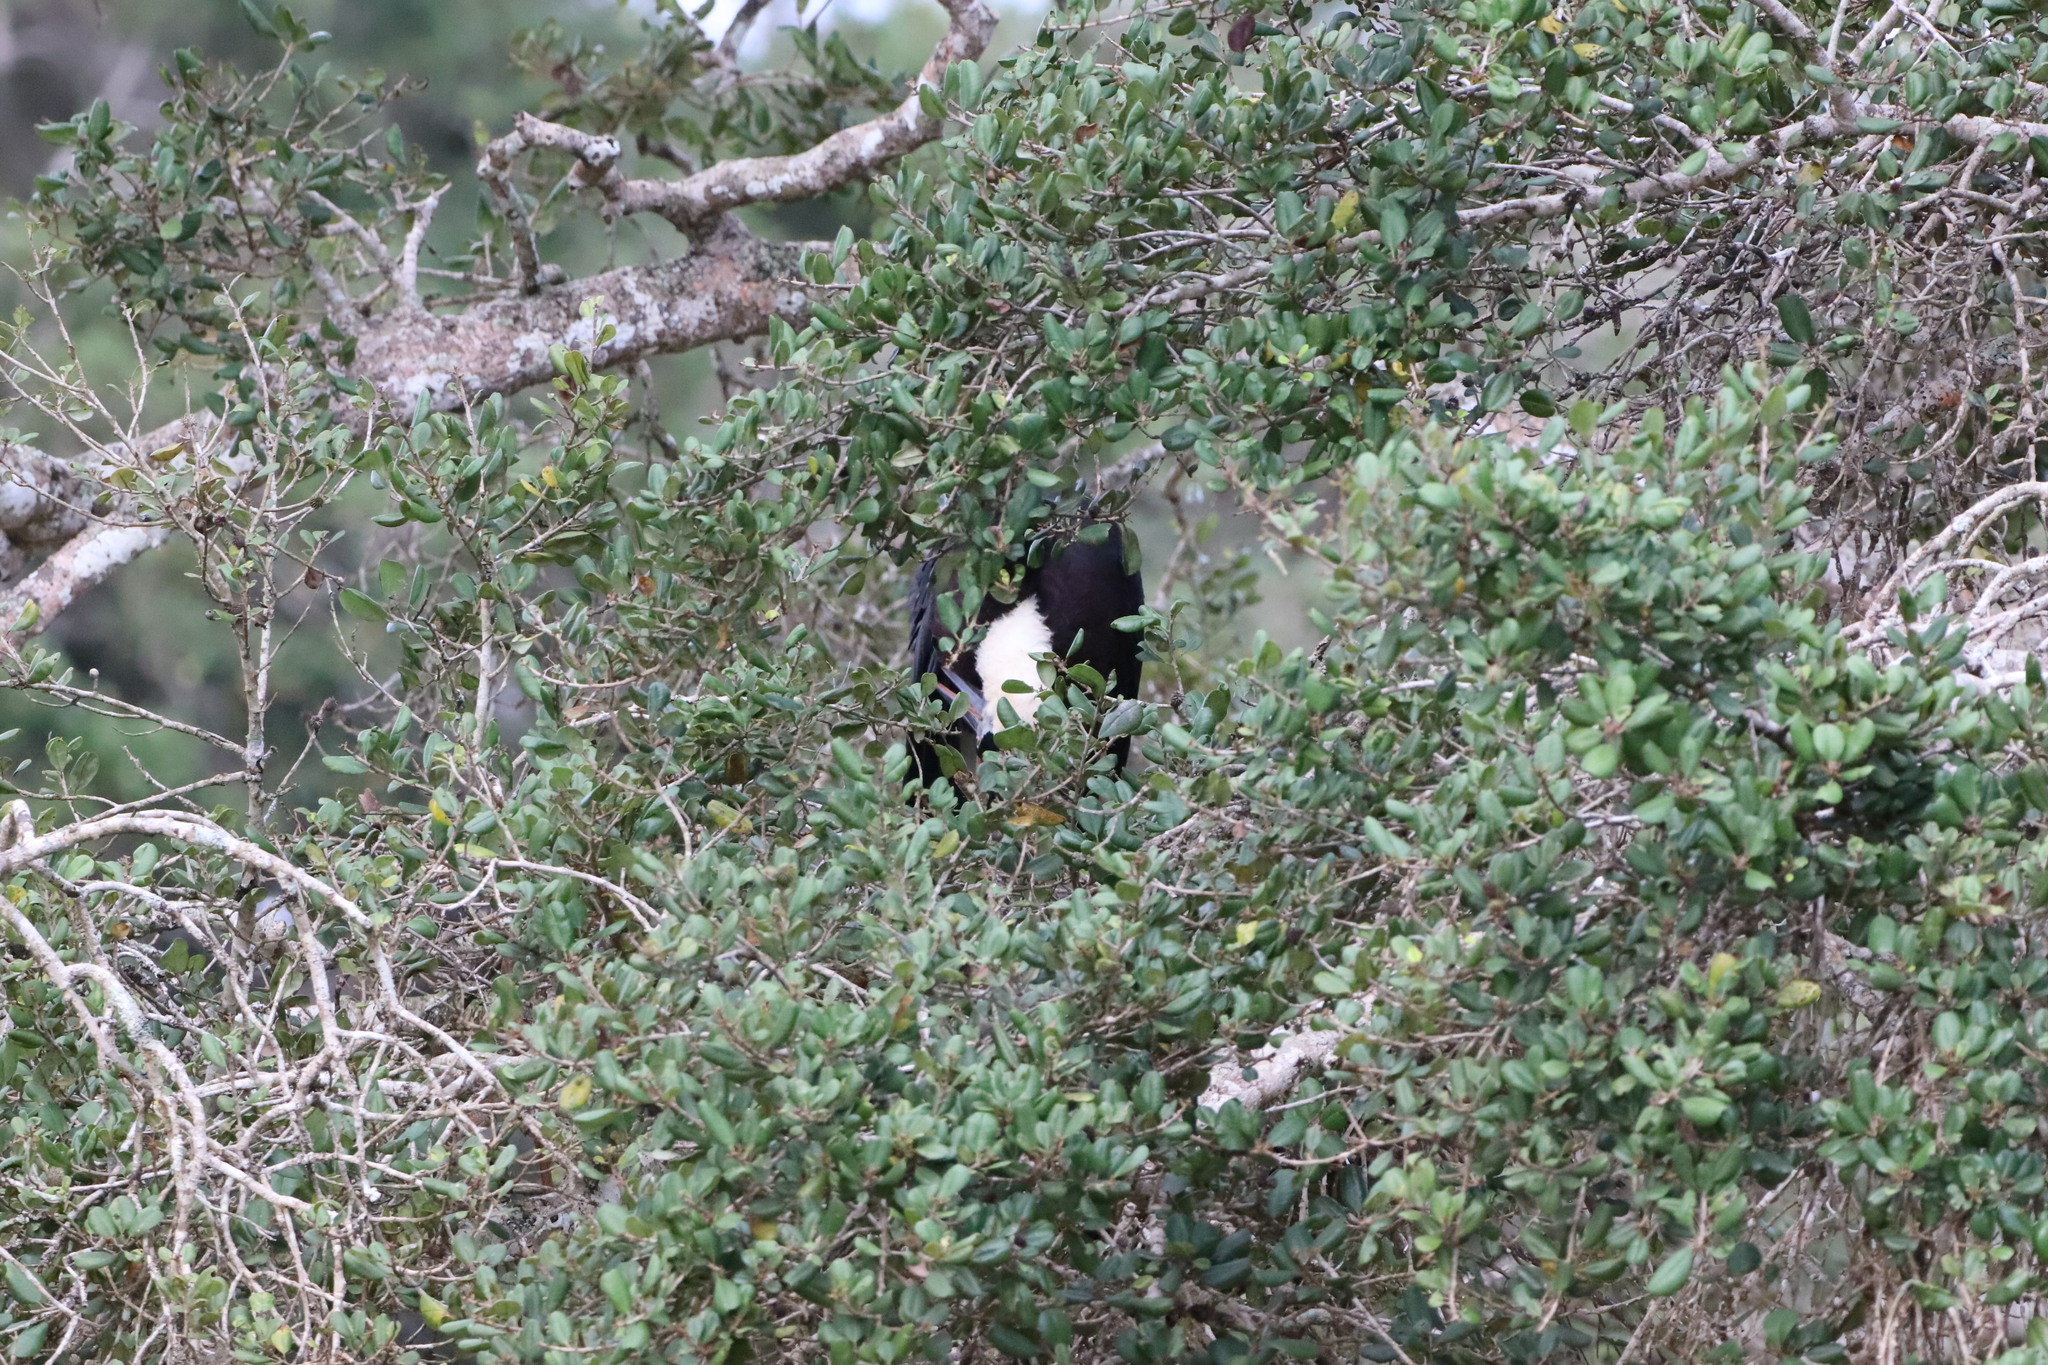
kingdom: Animalia
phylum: Chordata
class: Aves
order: Ciconiiformes
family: Ciconiidae
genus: Ciconia
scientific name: Ciconia episcopus
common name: Woolly-necked stork
